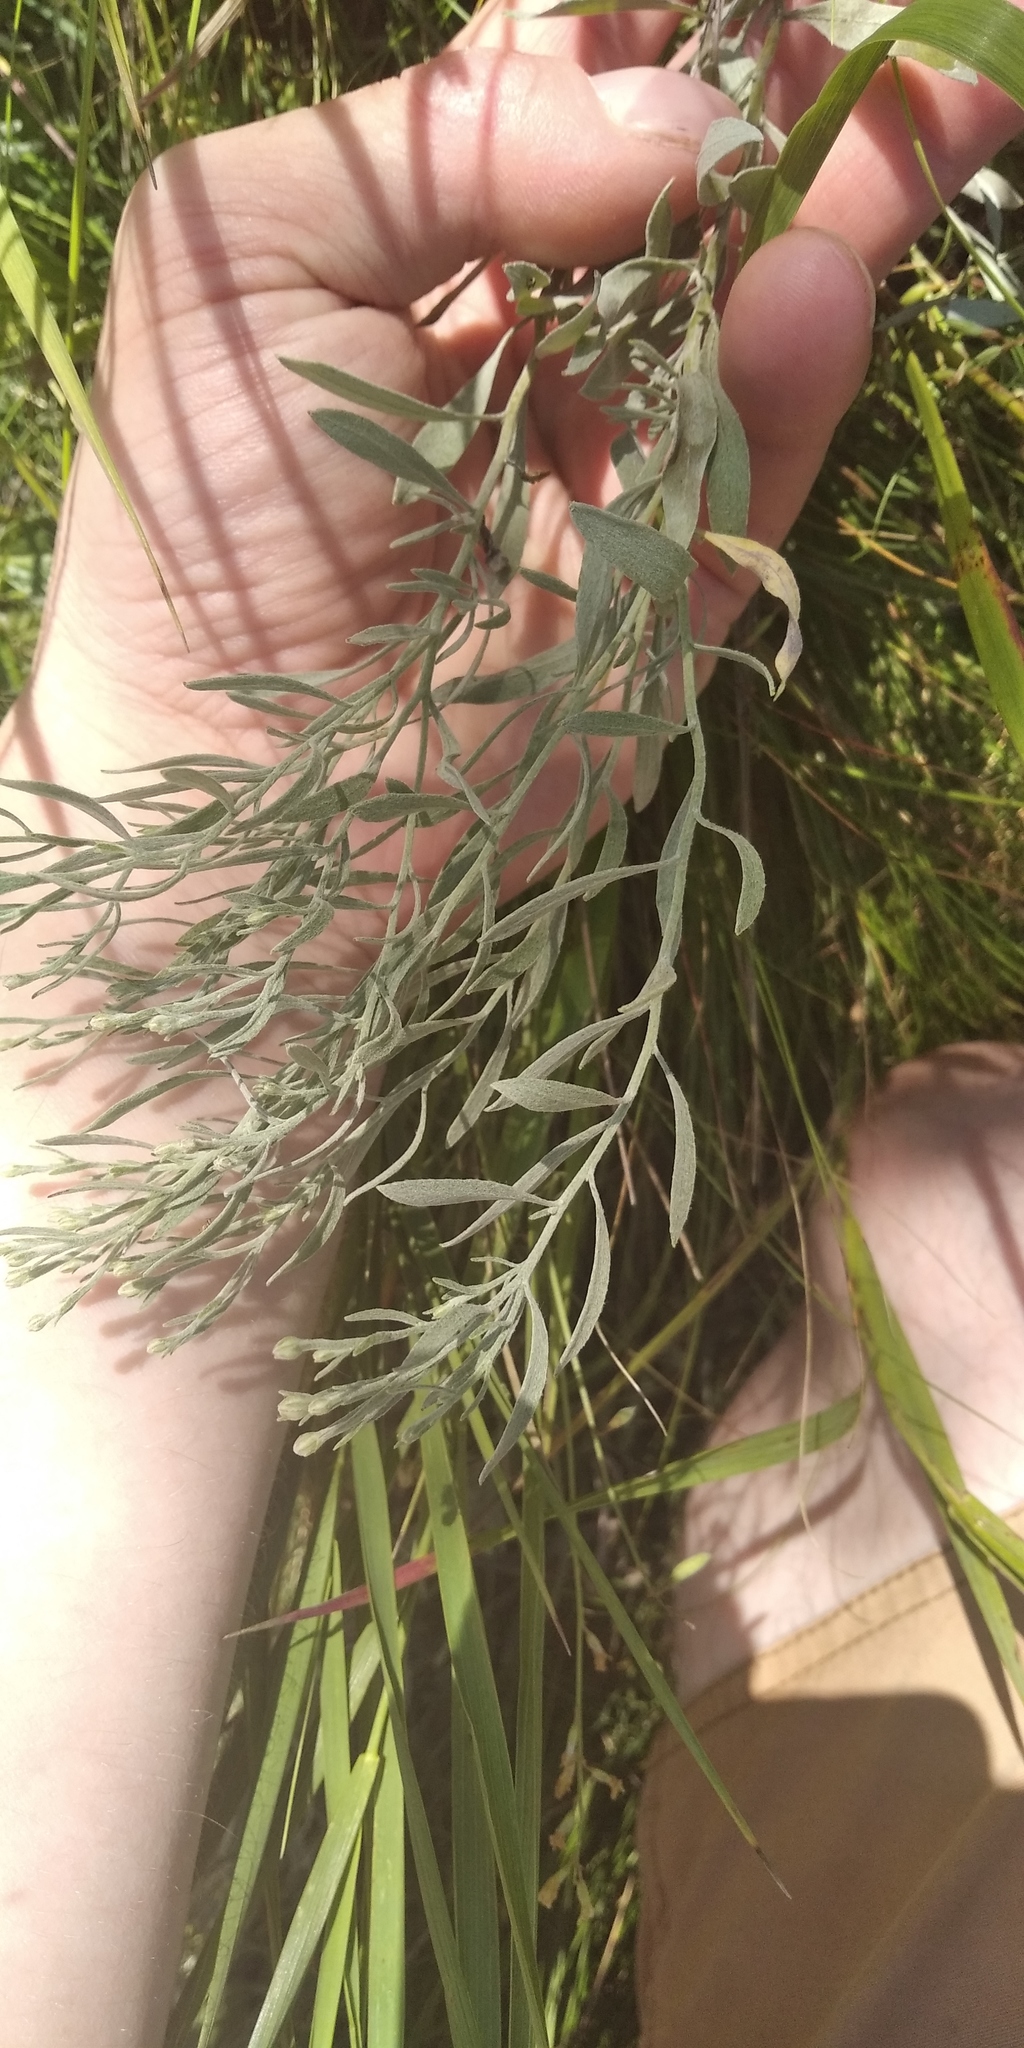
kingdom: Plantae
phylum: Tracheophyta
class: Magnoliopsida
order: Asterales
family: Asteraceae
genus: Galatella
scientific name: Galatella villosa
